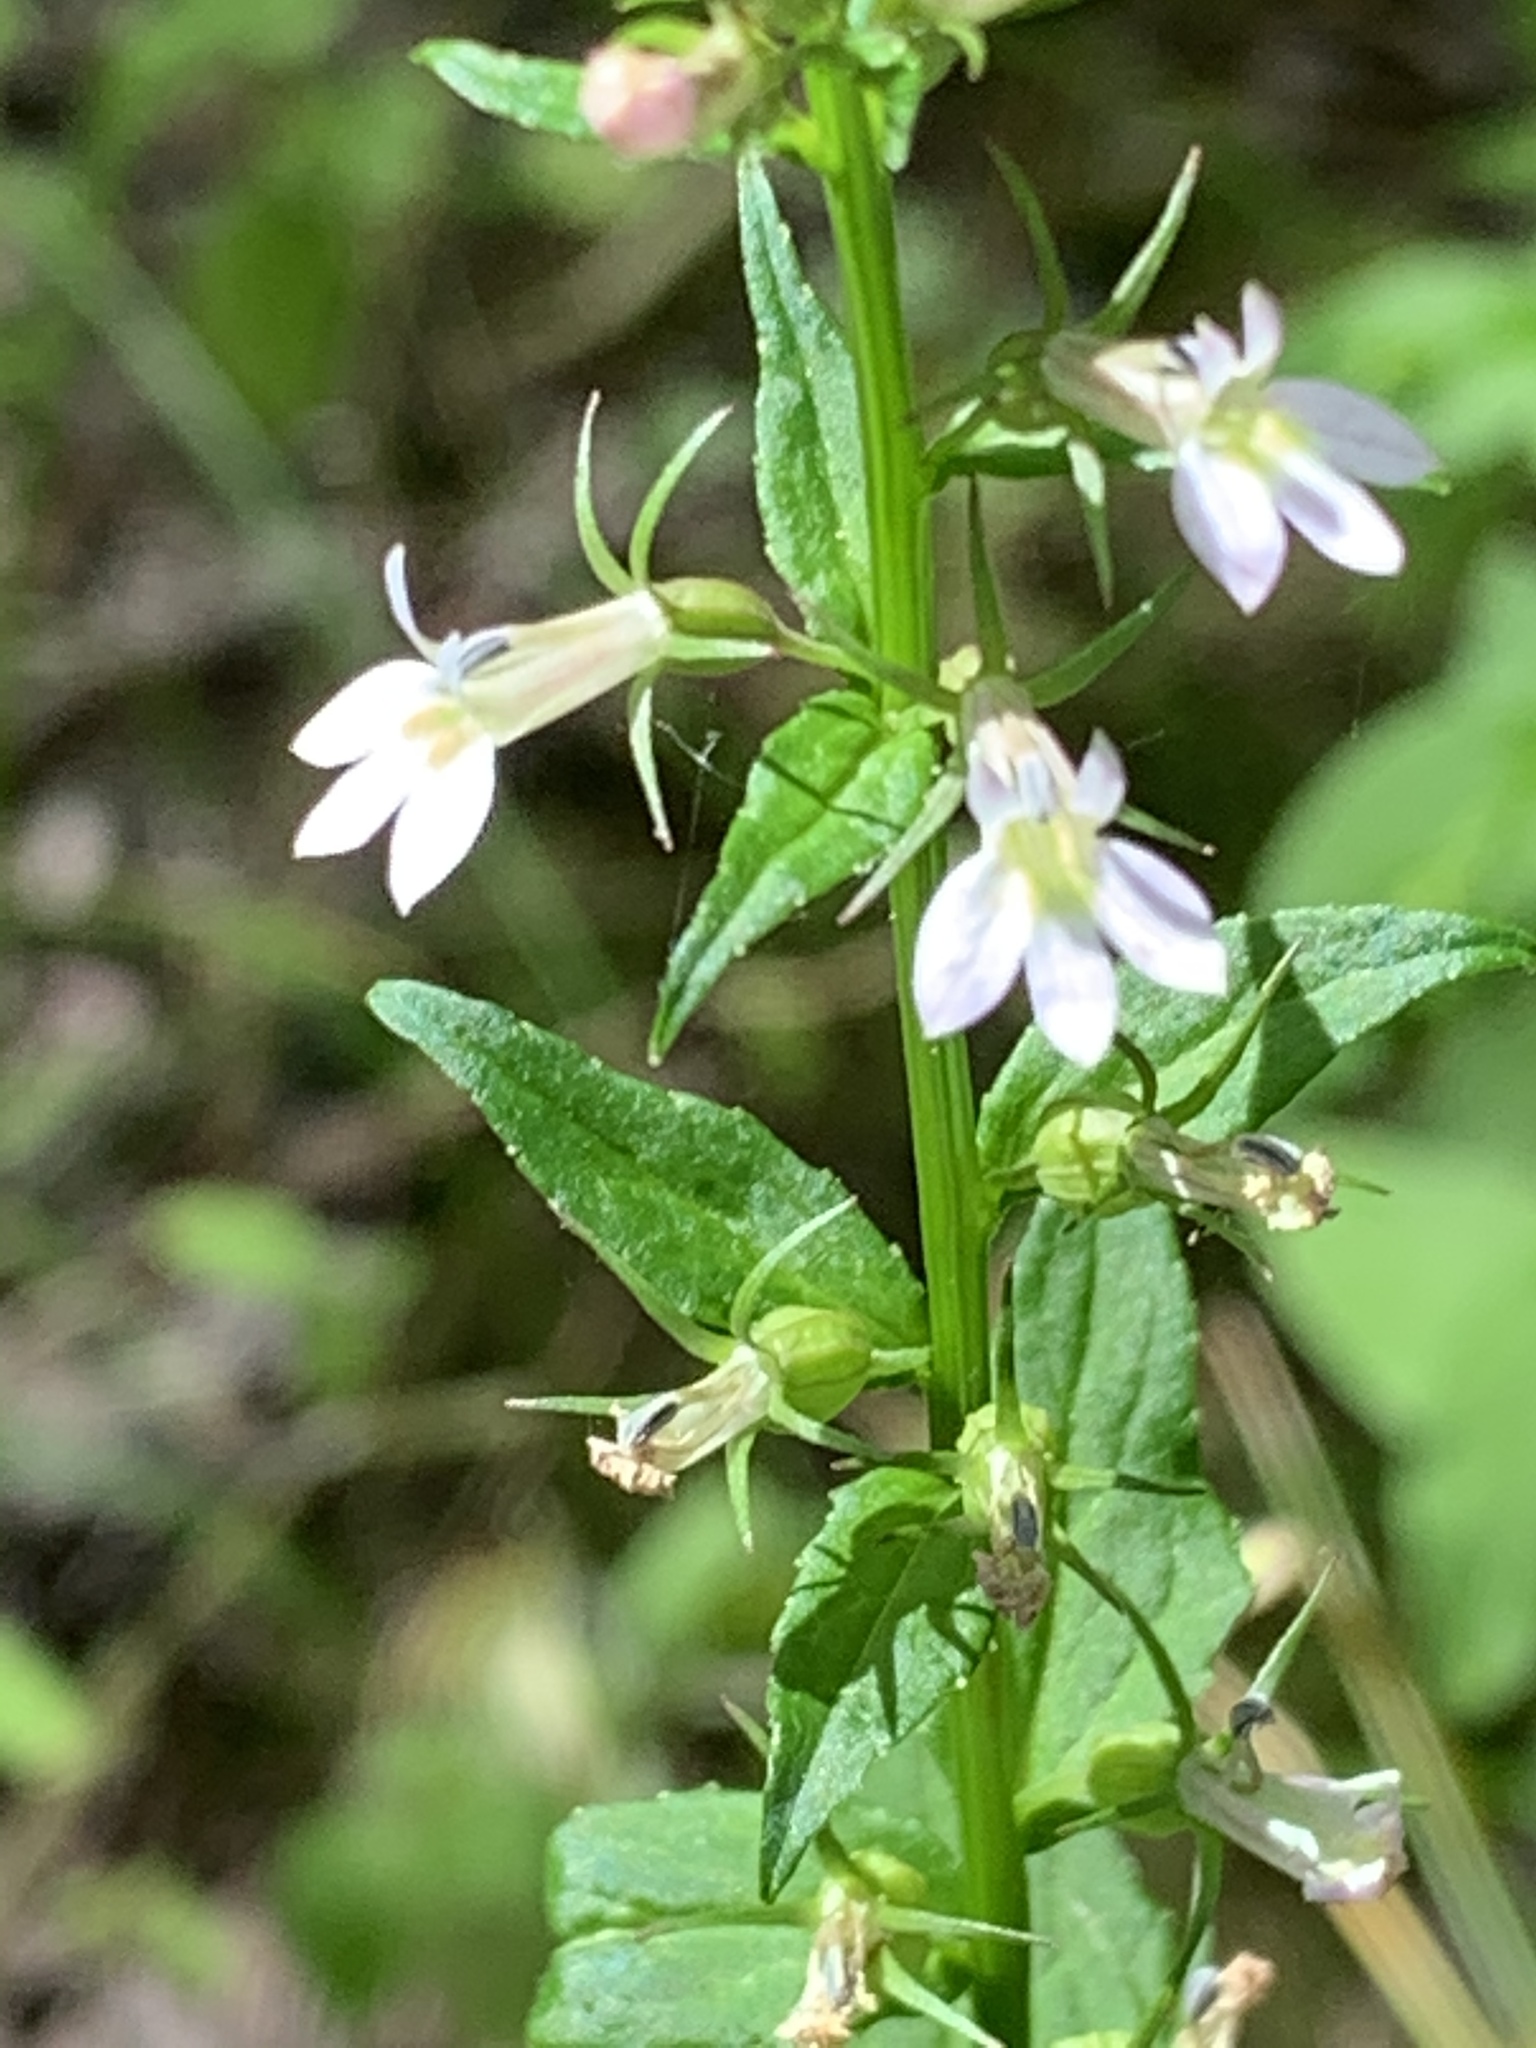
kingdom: Plantae
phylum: Tracheophyta
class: Magnoliopsida
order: Asterales
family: Campanulaceae
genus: Lobelia
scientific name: Lobelia inflata
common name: Indian tobacco
